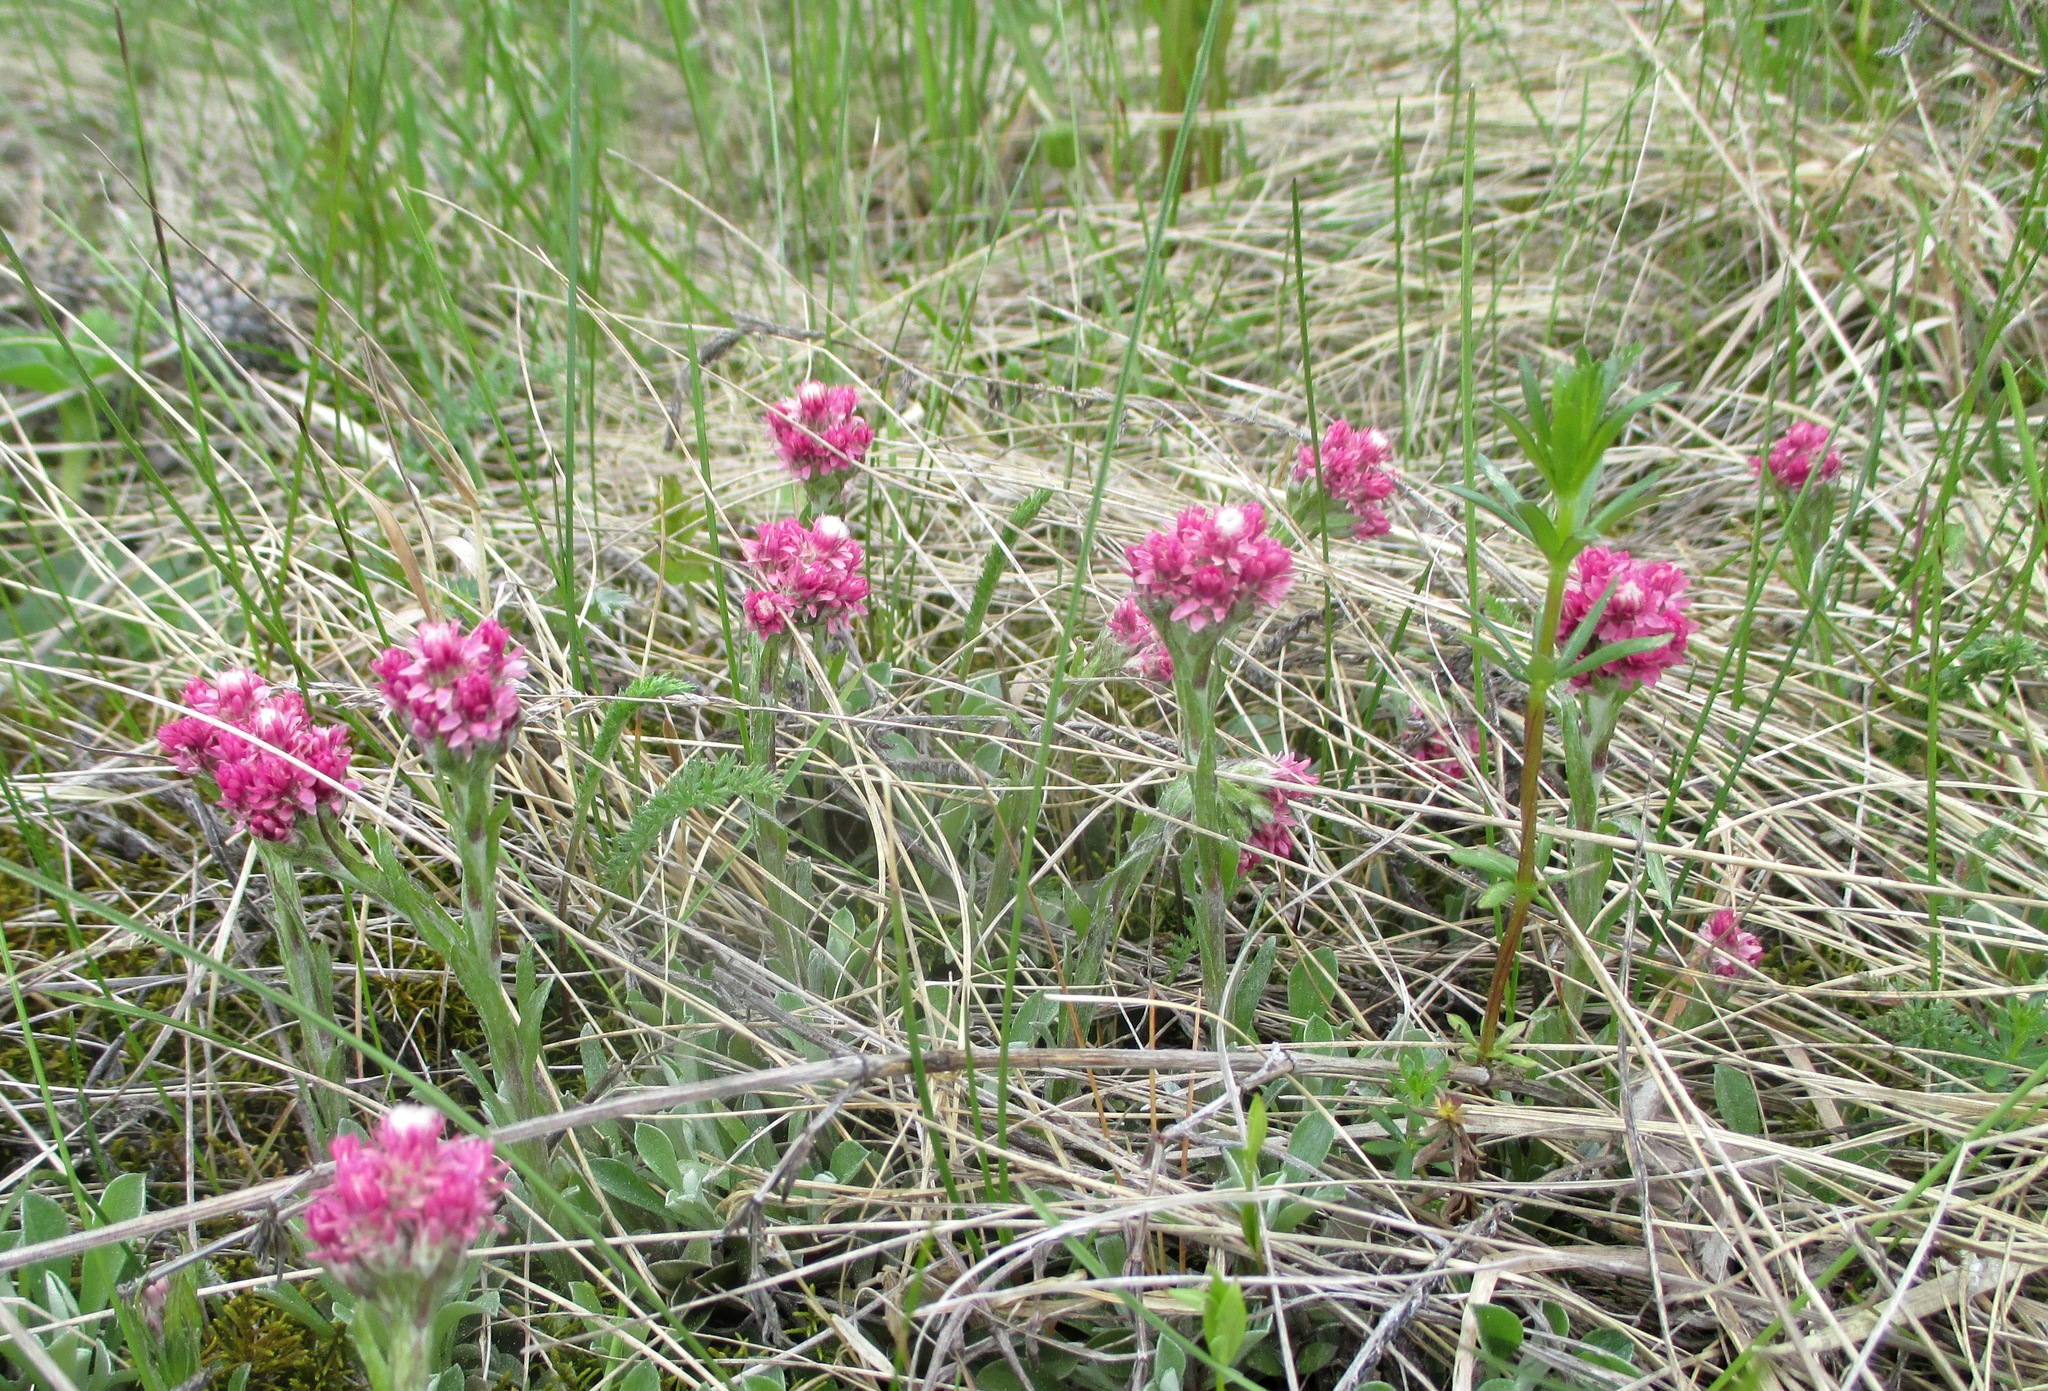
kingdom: Plantae
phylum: Tracheophyta
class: Magnoliopsida
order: Asterales
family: Asteraceae
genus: Antennaria
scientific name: Antennaria dioica
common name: Mountain everlasting
